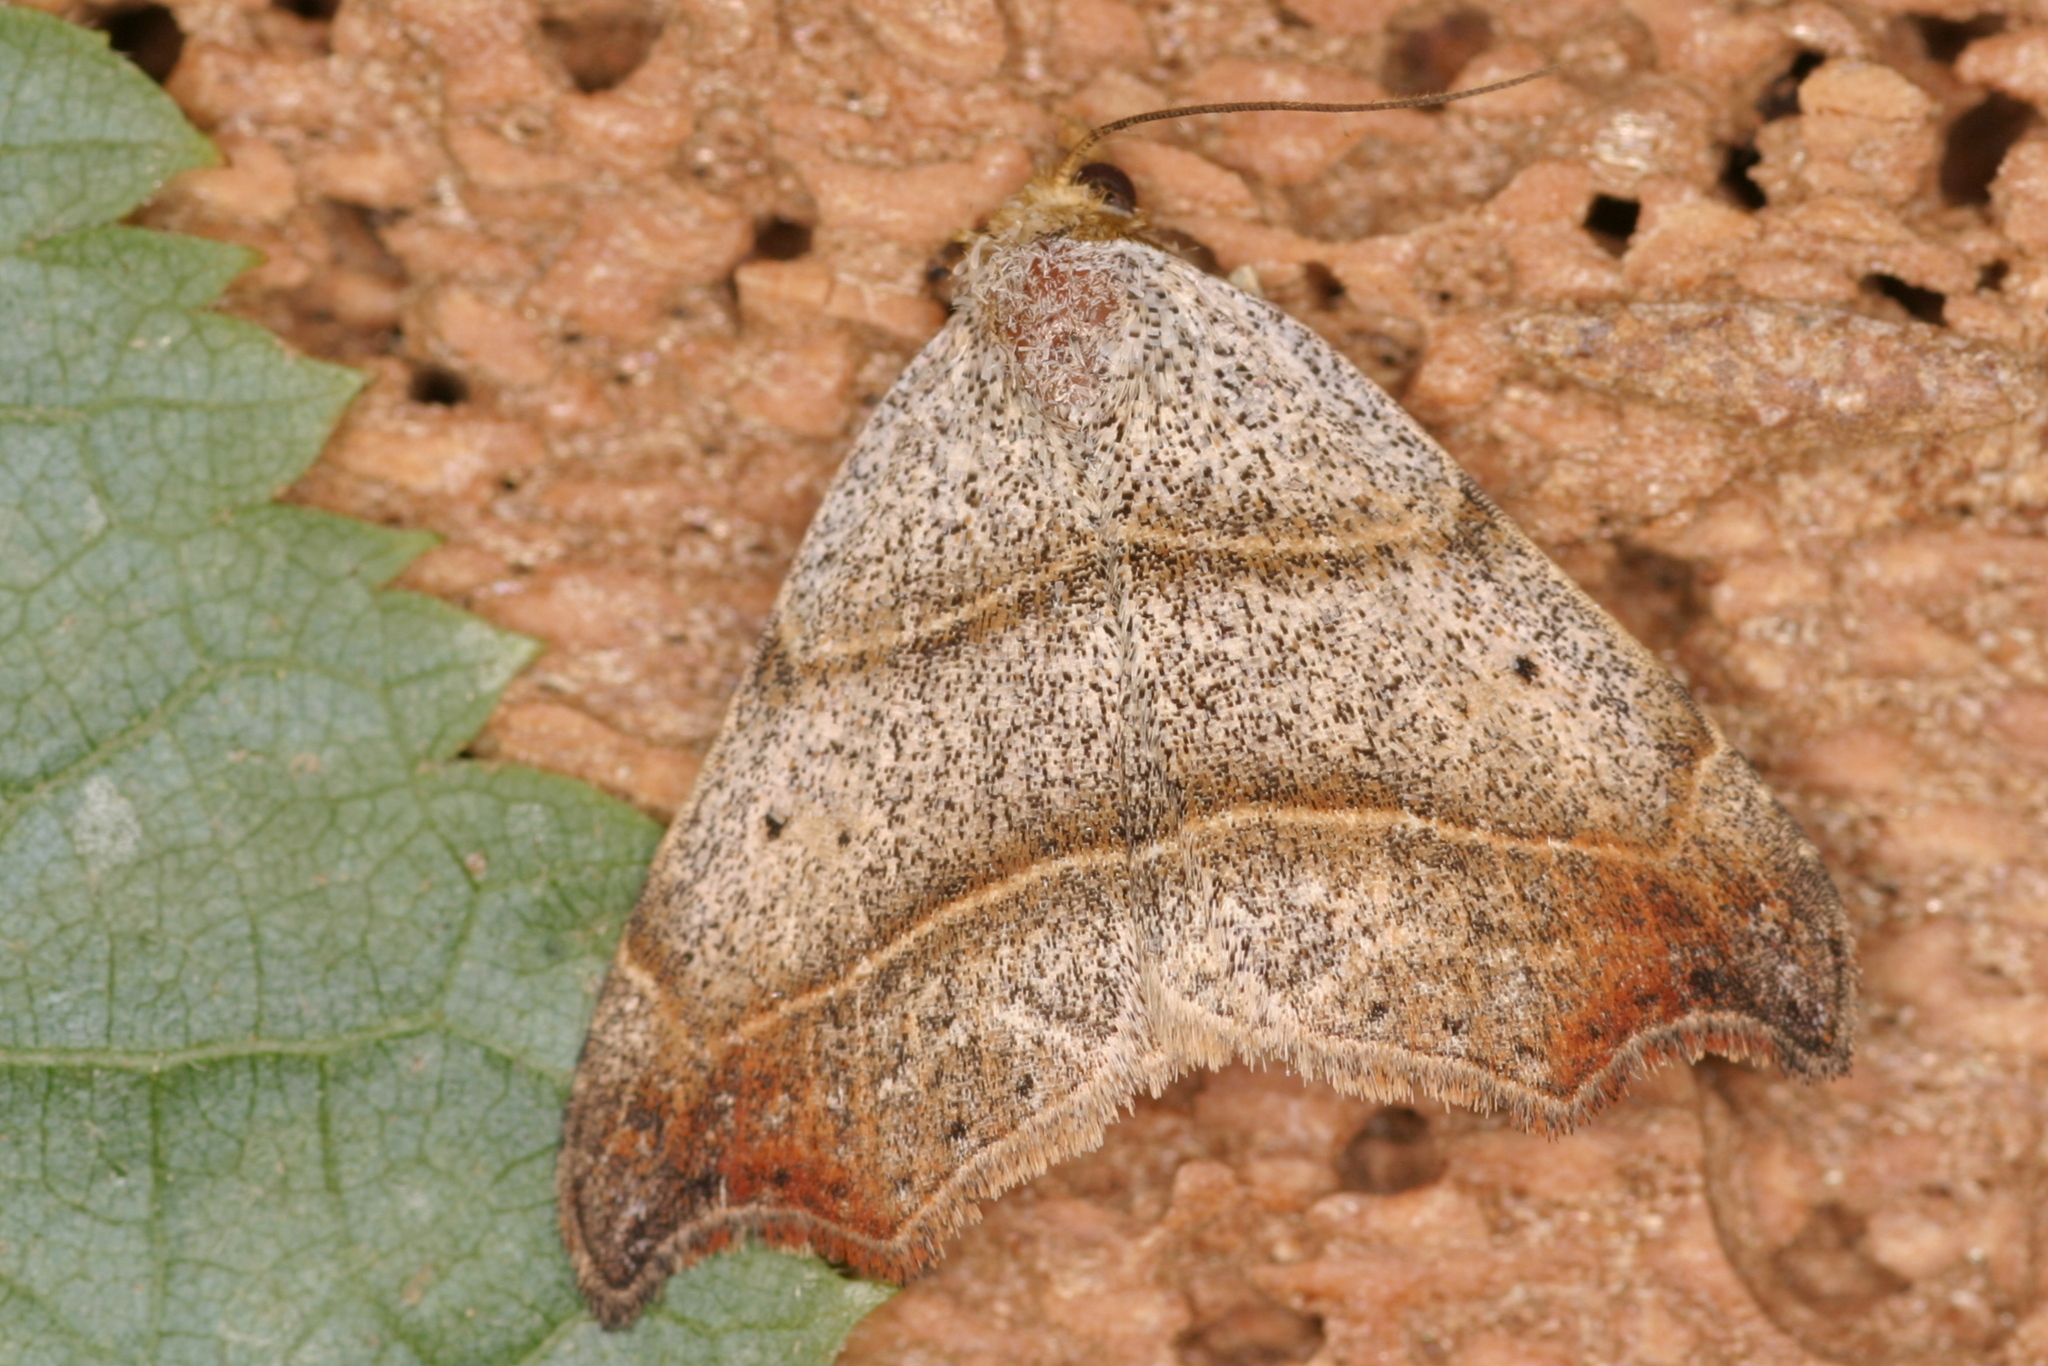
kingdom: Animalia
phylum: Arthropoda
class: Insecta
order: Lepidoptera
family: Erebidae
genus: Laspeyria
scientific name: Laspeyria flexula
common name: Beautiful hook-tip
